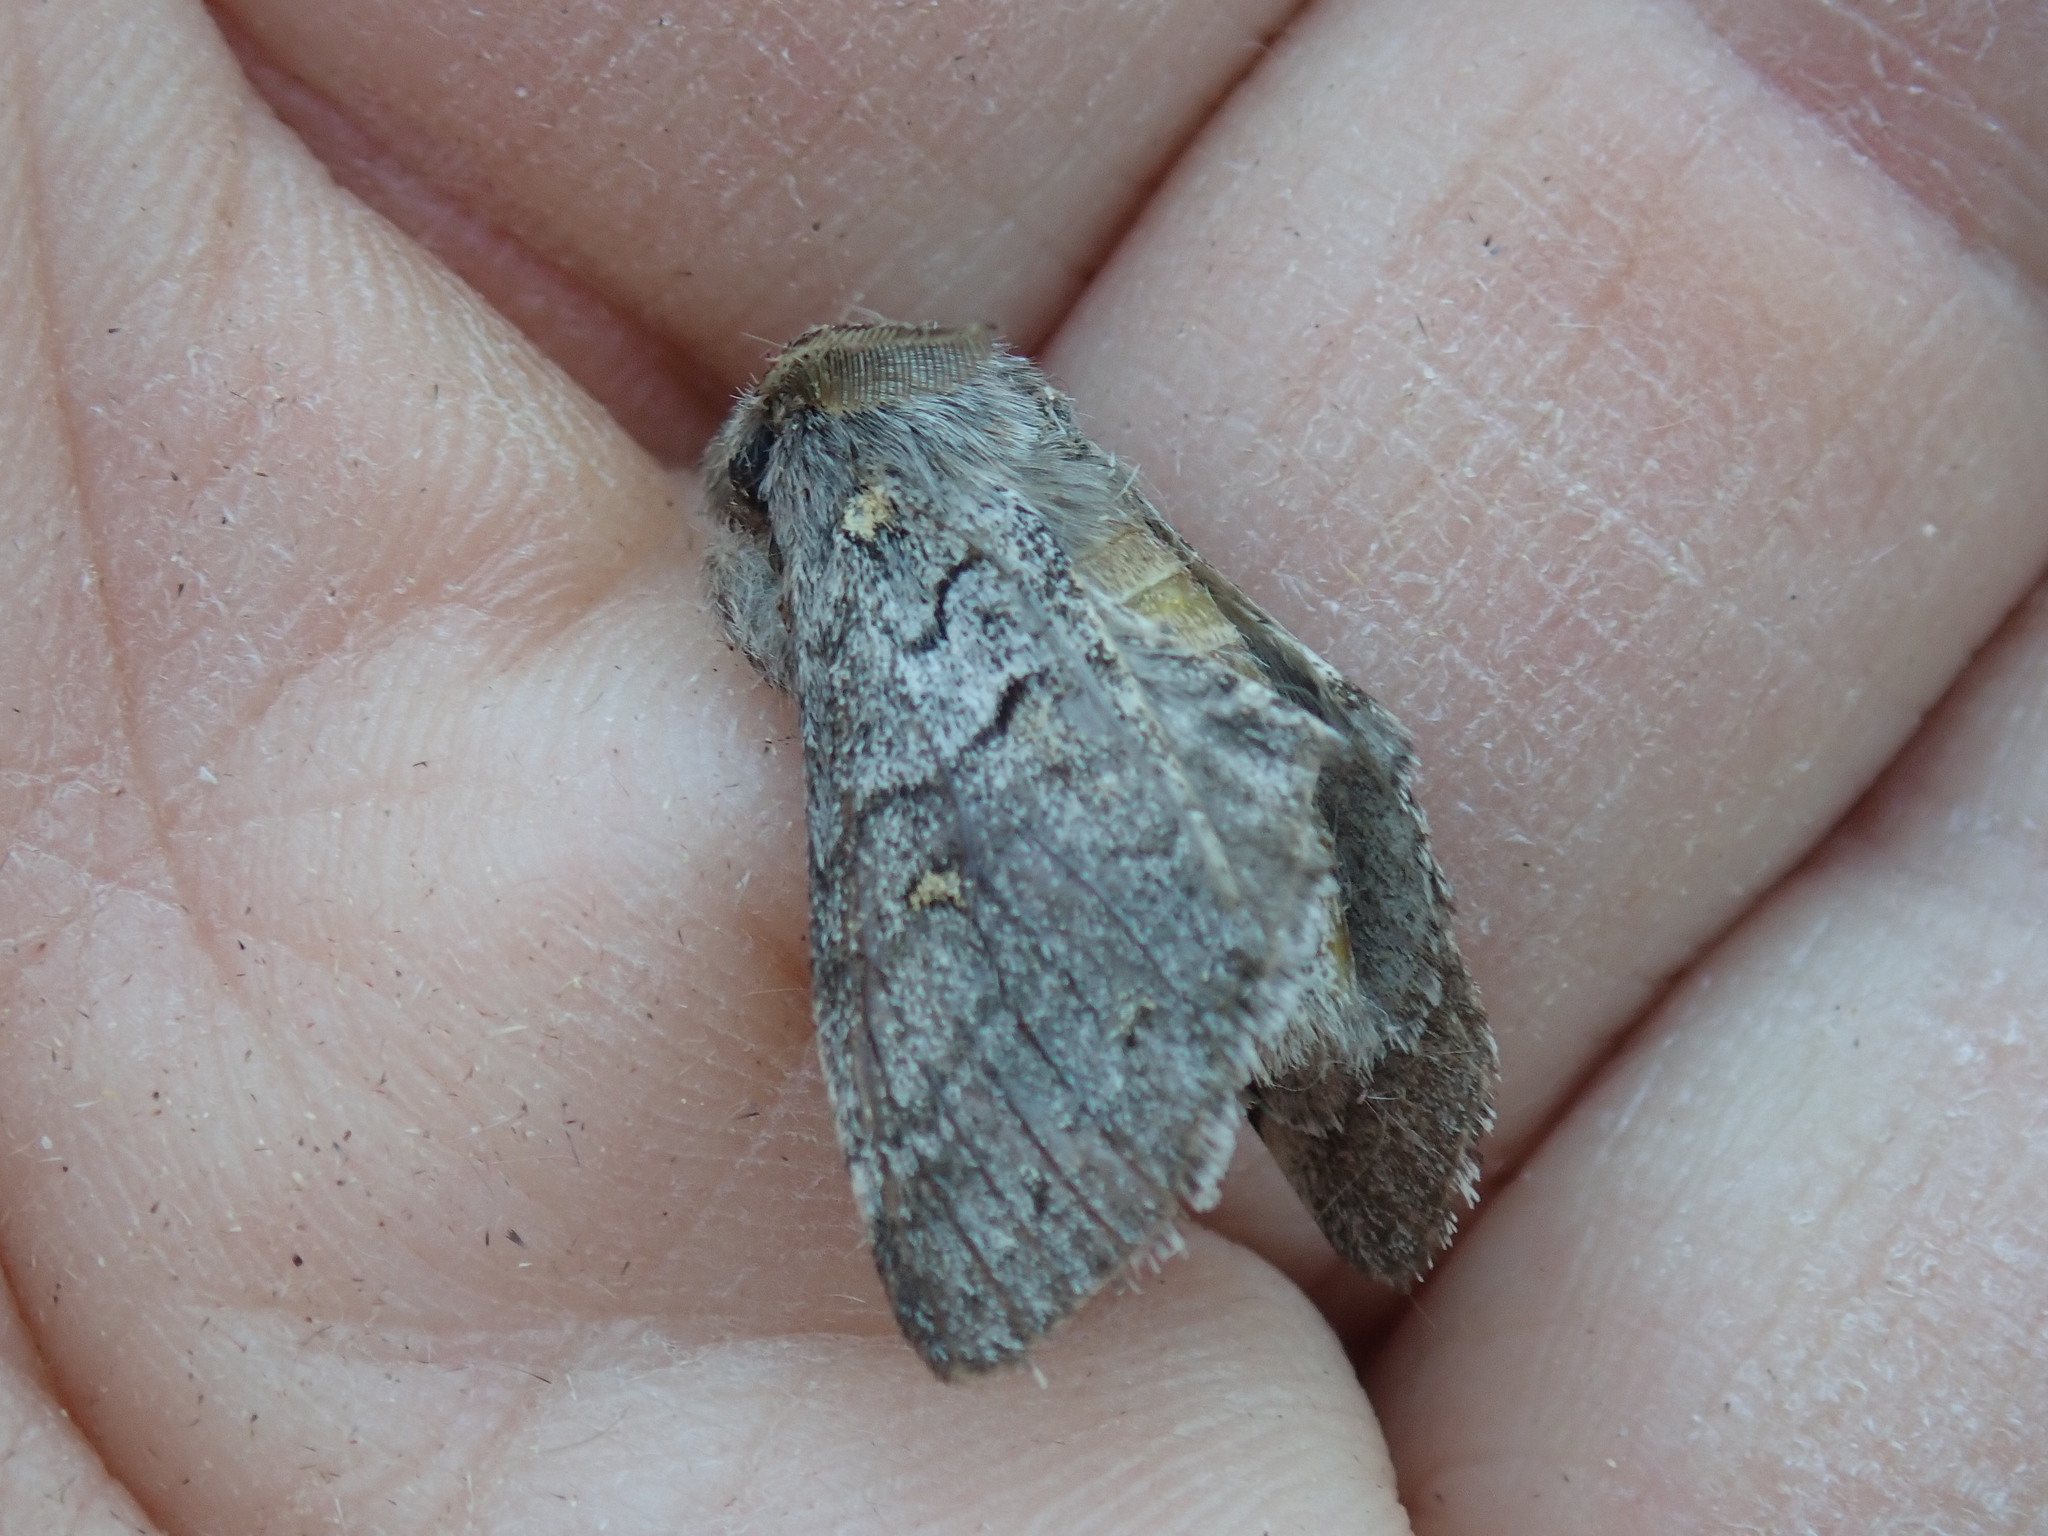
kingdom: Animalia
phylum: Arthropoda
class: Insecta
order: Lepidoptera
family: Notodontidae
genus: Gluphisia
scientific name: Gluphisia avimacula
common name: Four-spotted gluphisia moth
